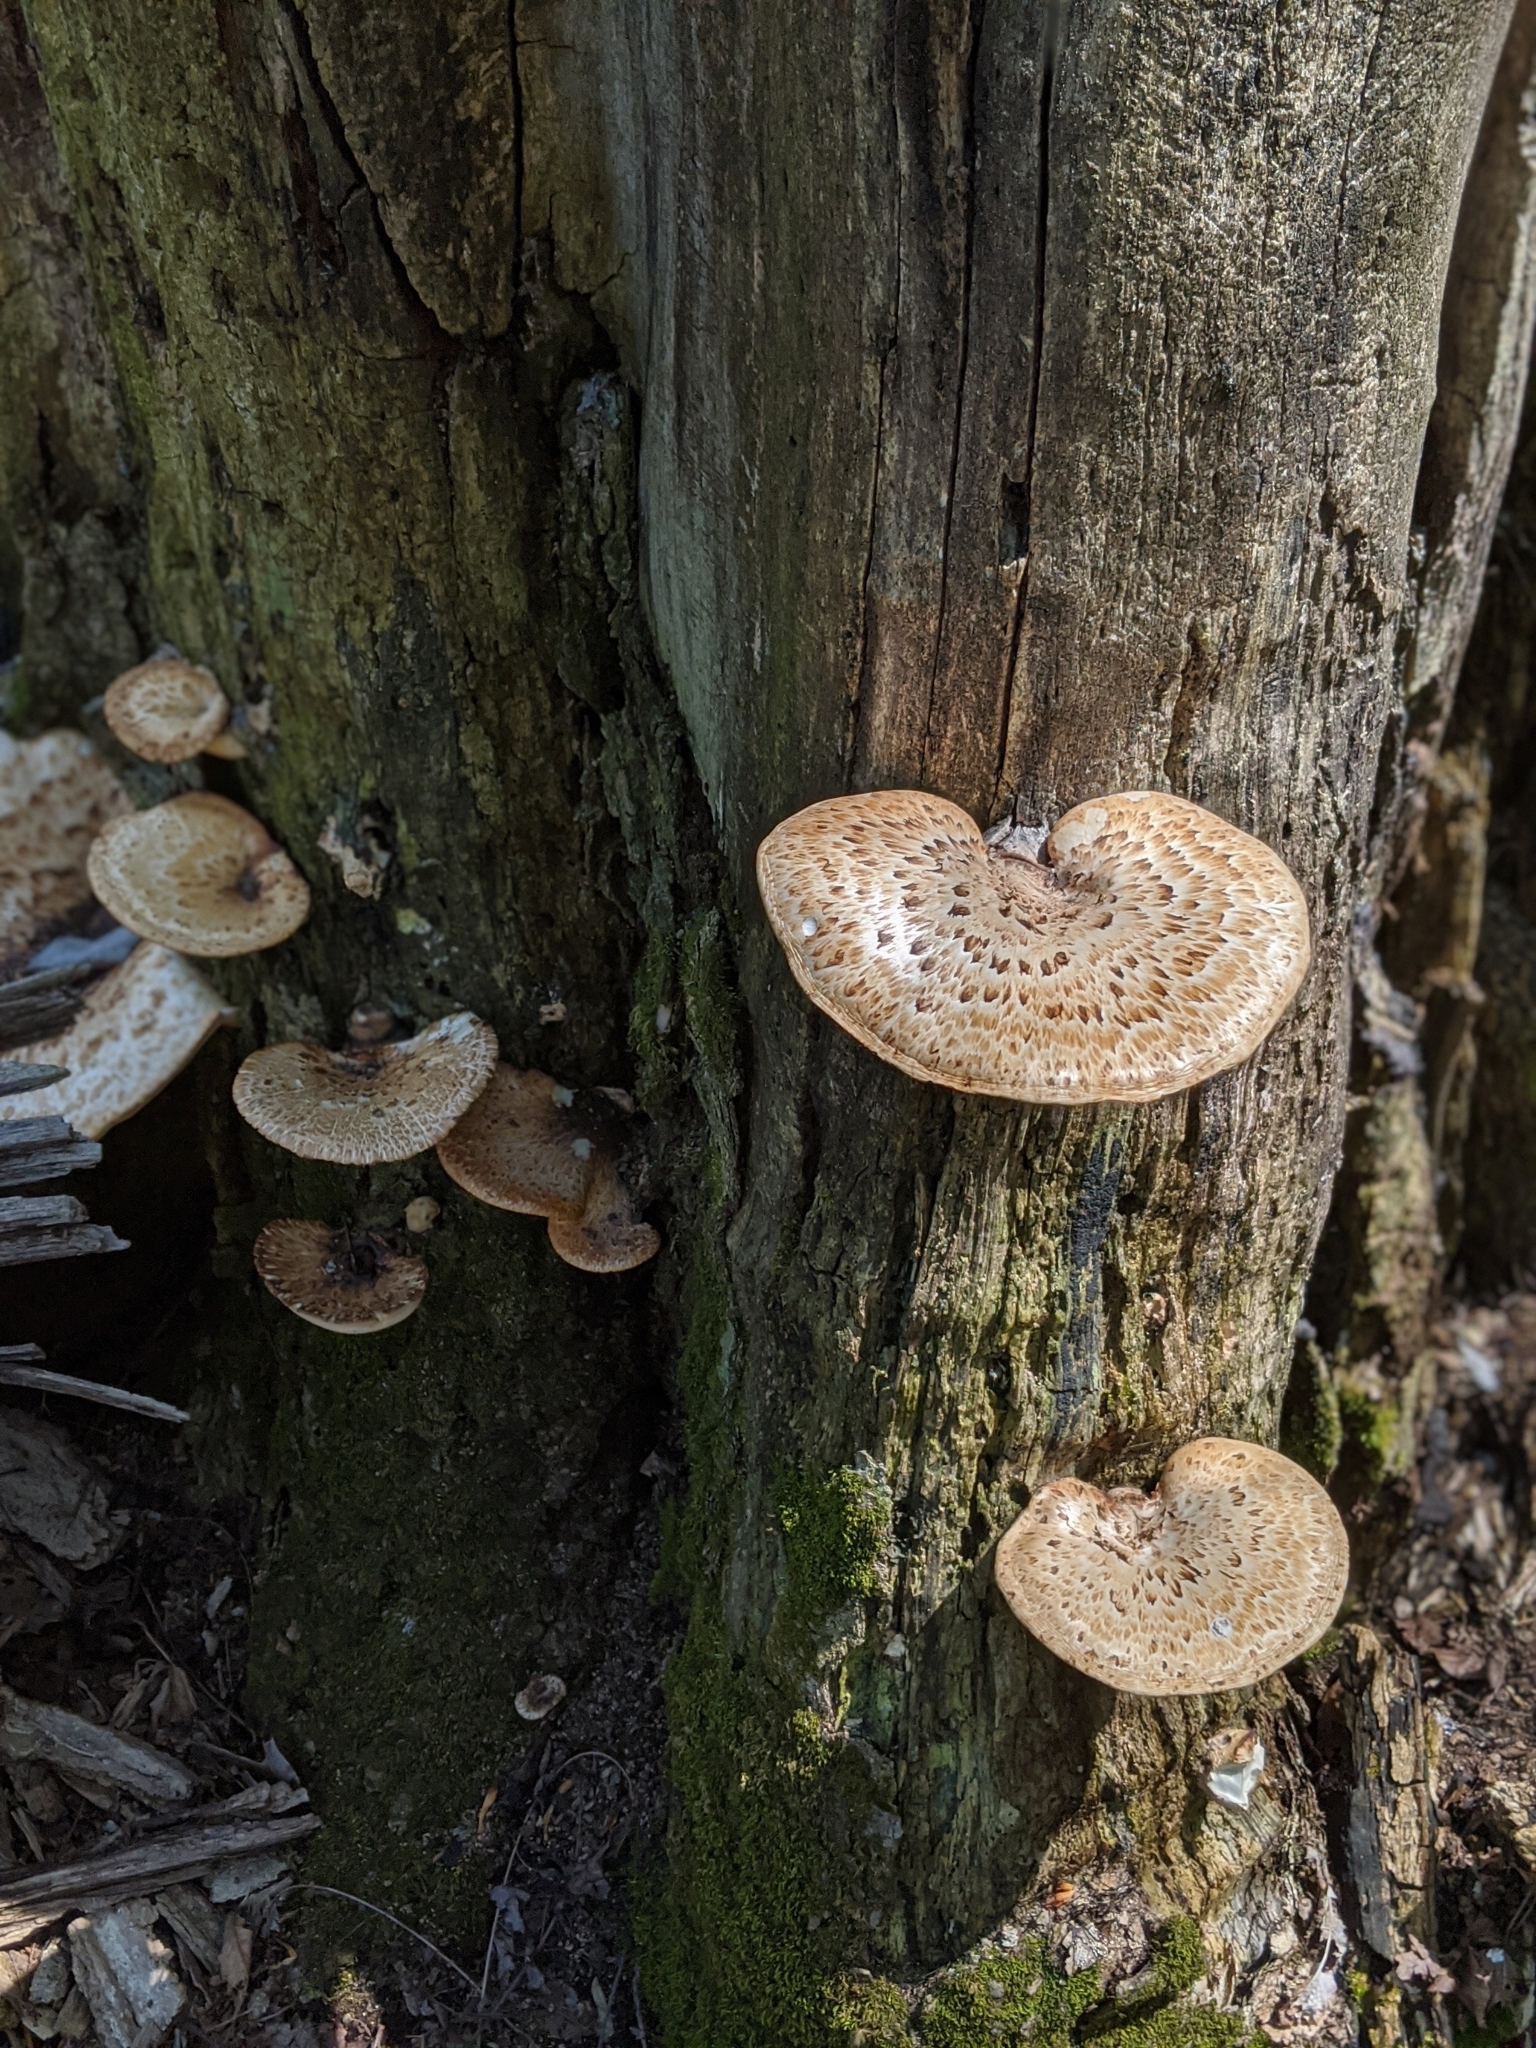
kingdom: Fungi
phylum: Basidiomycota
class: Agaricomycetes
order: Polyporales
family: Polyporaceae
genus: Cerioporus
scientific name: Cerioporus squamosus
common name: Dryad's saddle
